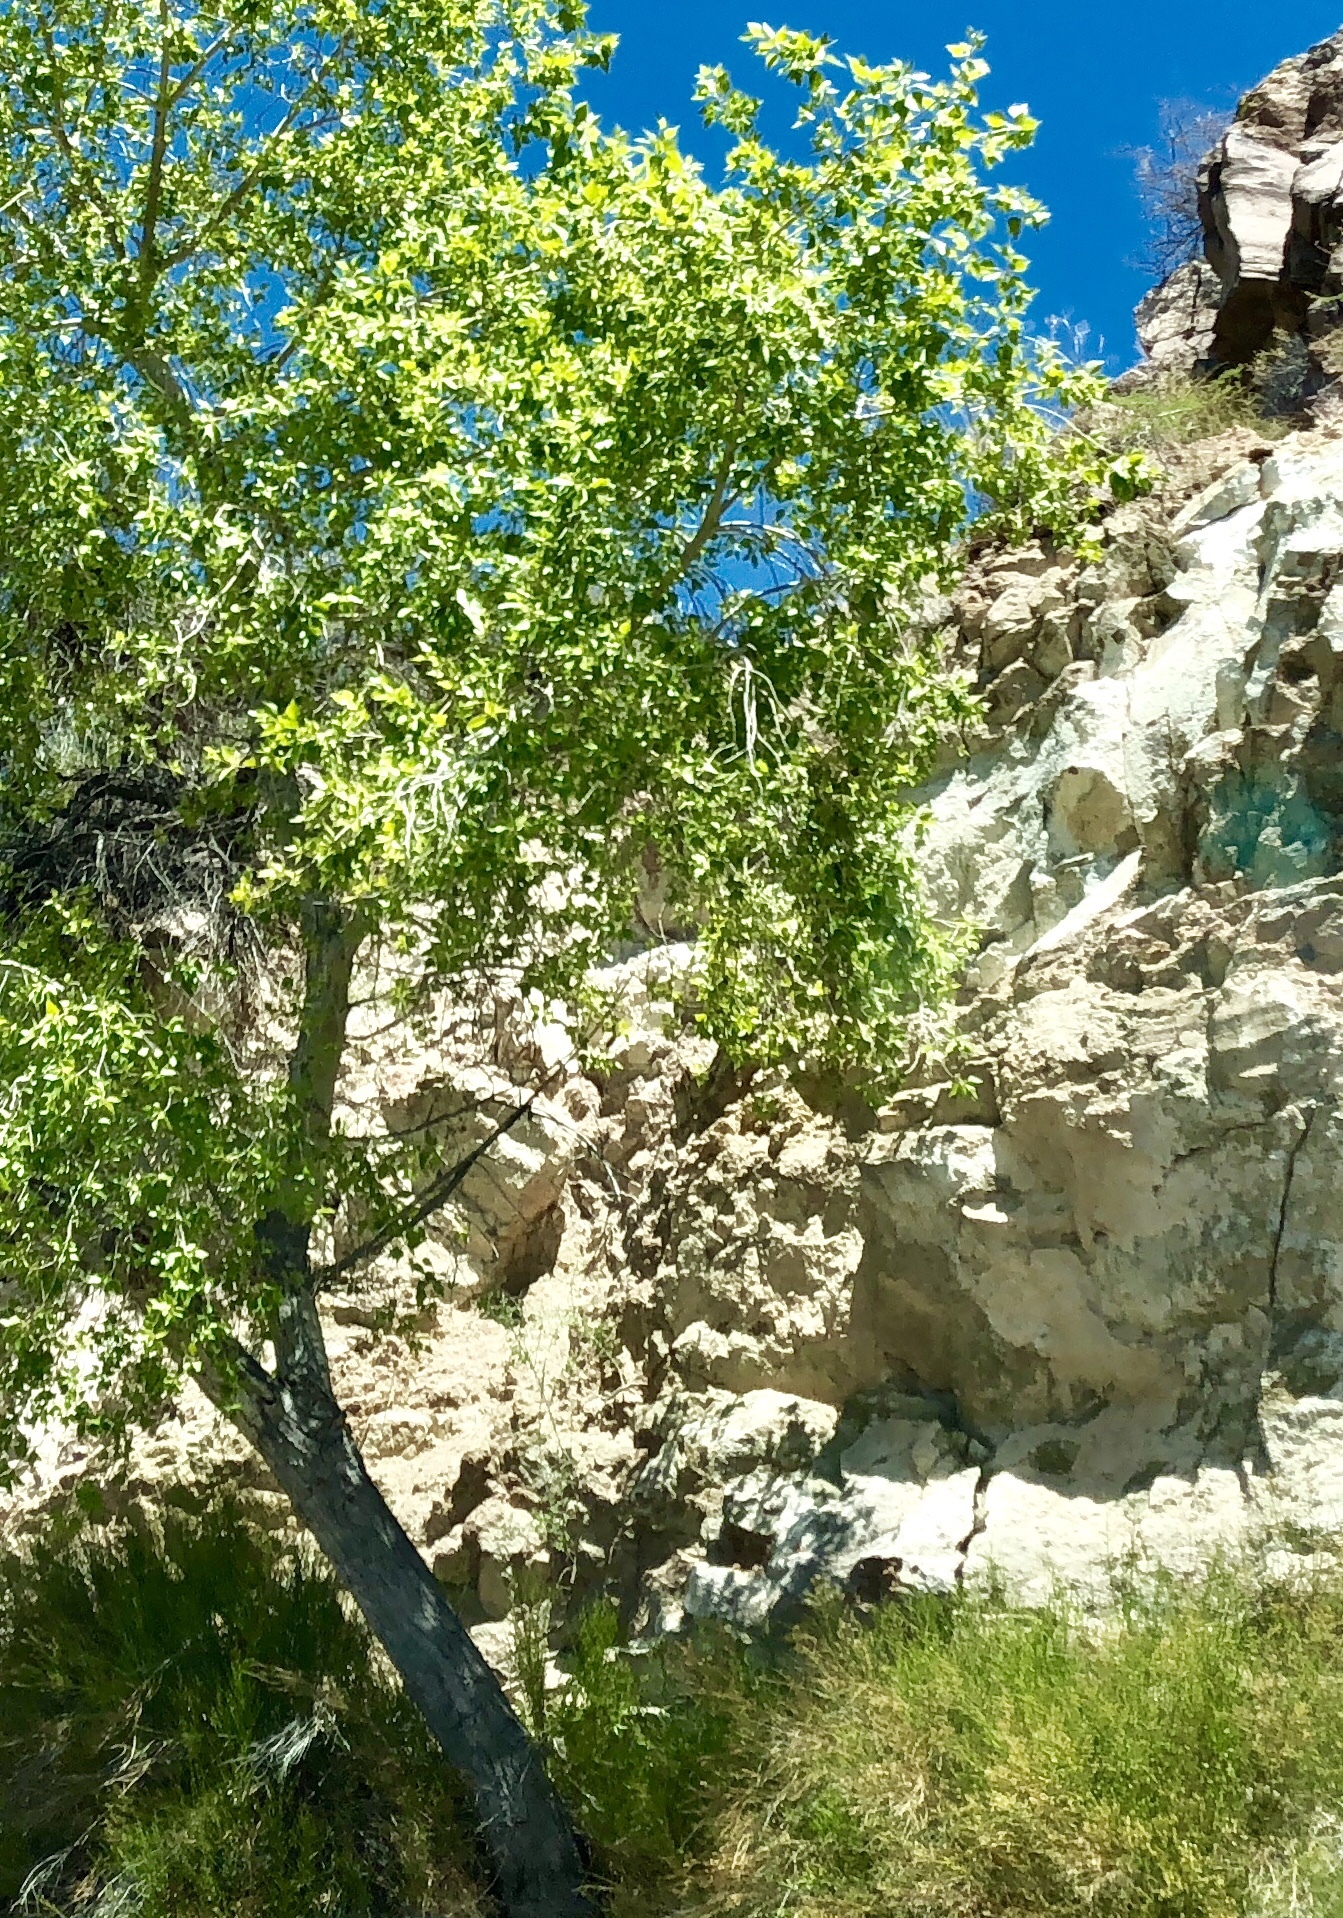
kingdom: Plantae
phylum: Tracheophyta
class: Magnoliopsida
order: Malpighiales
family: Salicaceae
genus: Populus
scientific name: Populus fremontii
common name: Fremont's cottonwood
